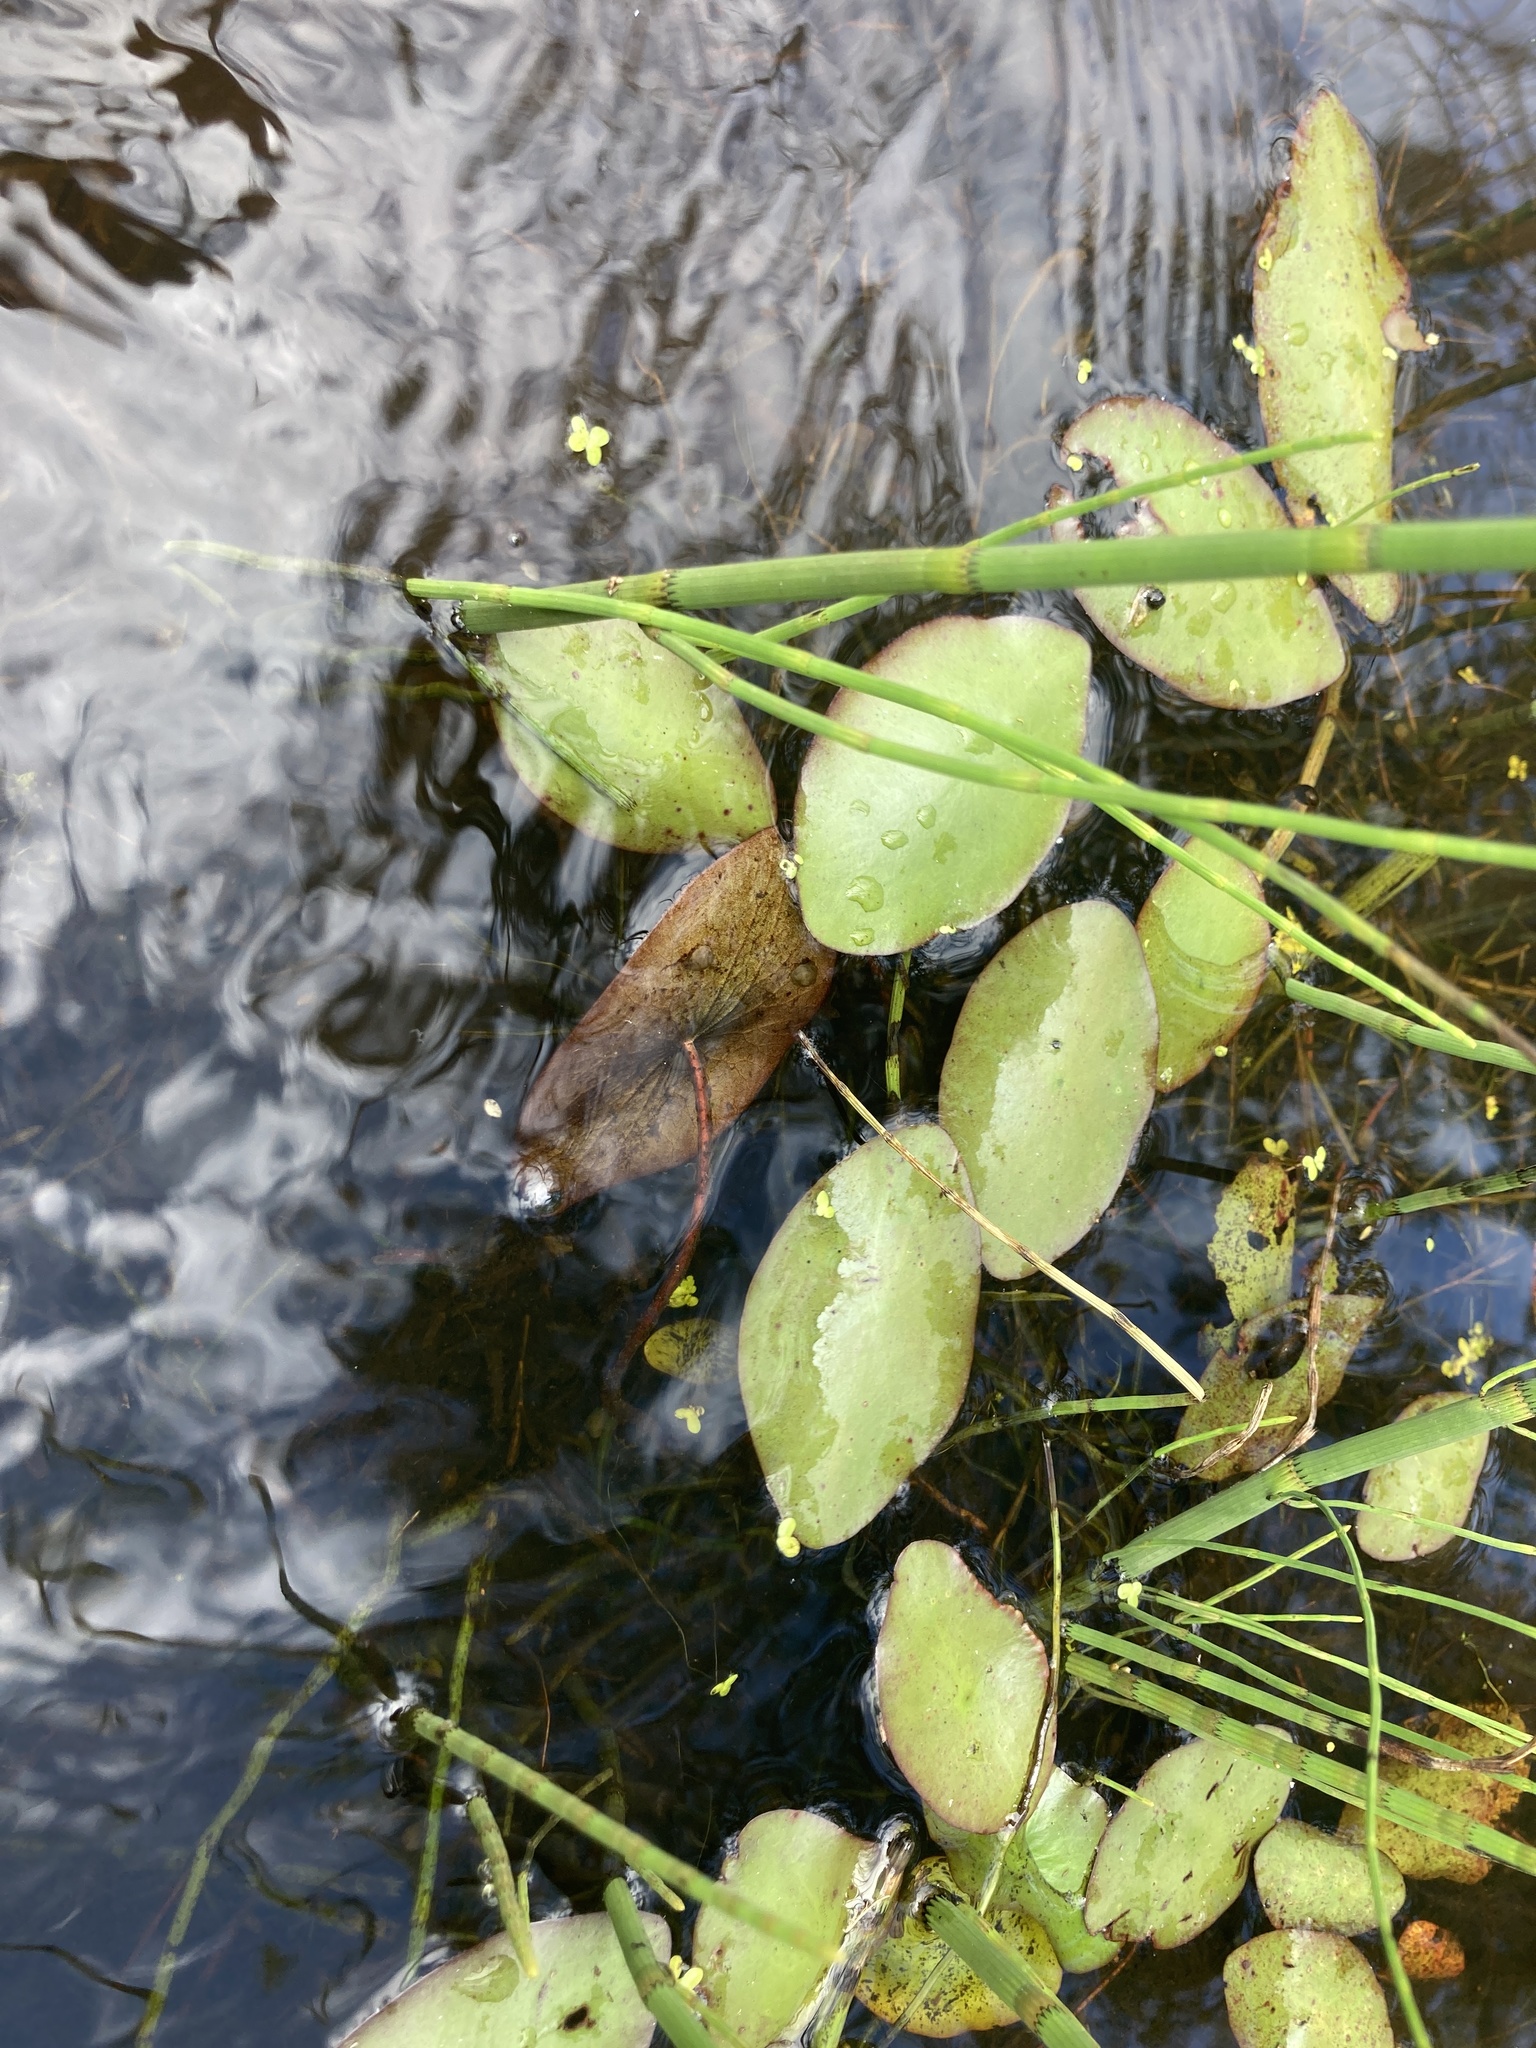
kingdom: Plantae
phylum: Tracheophyta
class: Magnoliopsida
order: Nymphaeales
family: Cabombaceae
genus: Brasenia
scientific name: Brasenia schreberi
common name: Water-shield
